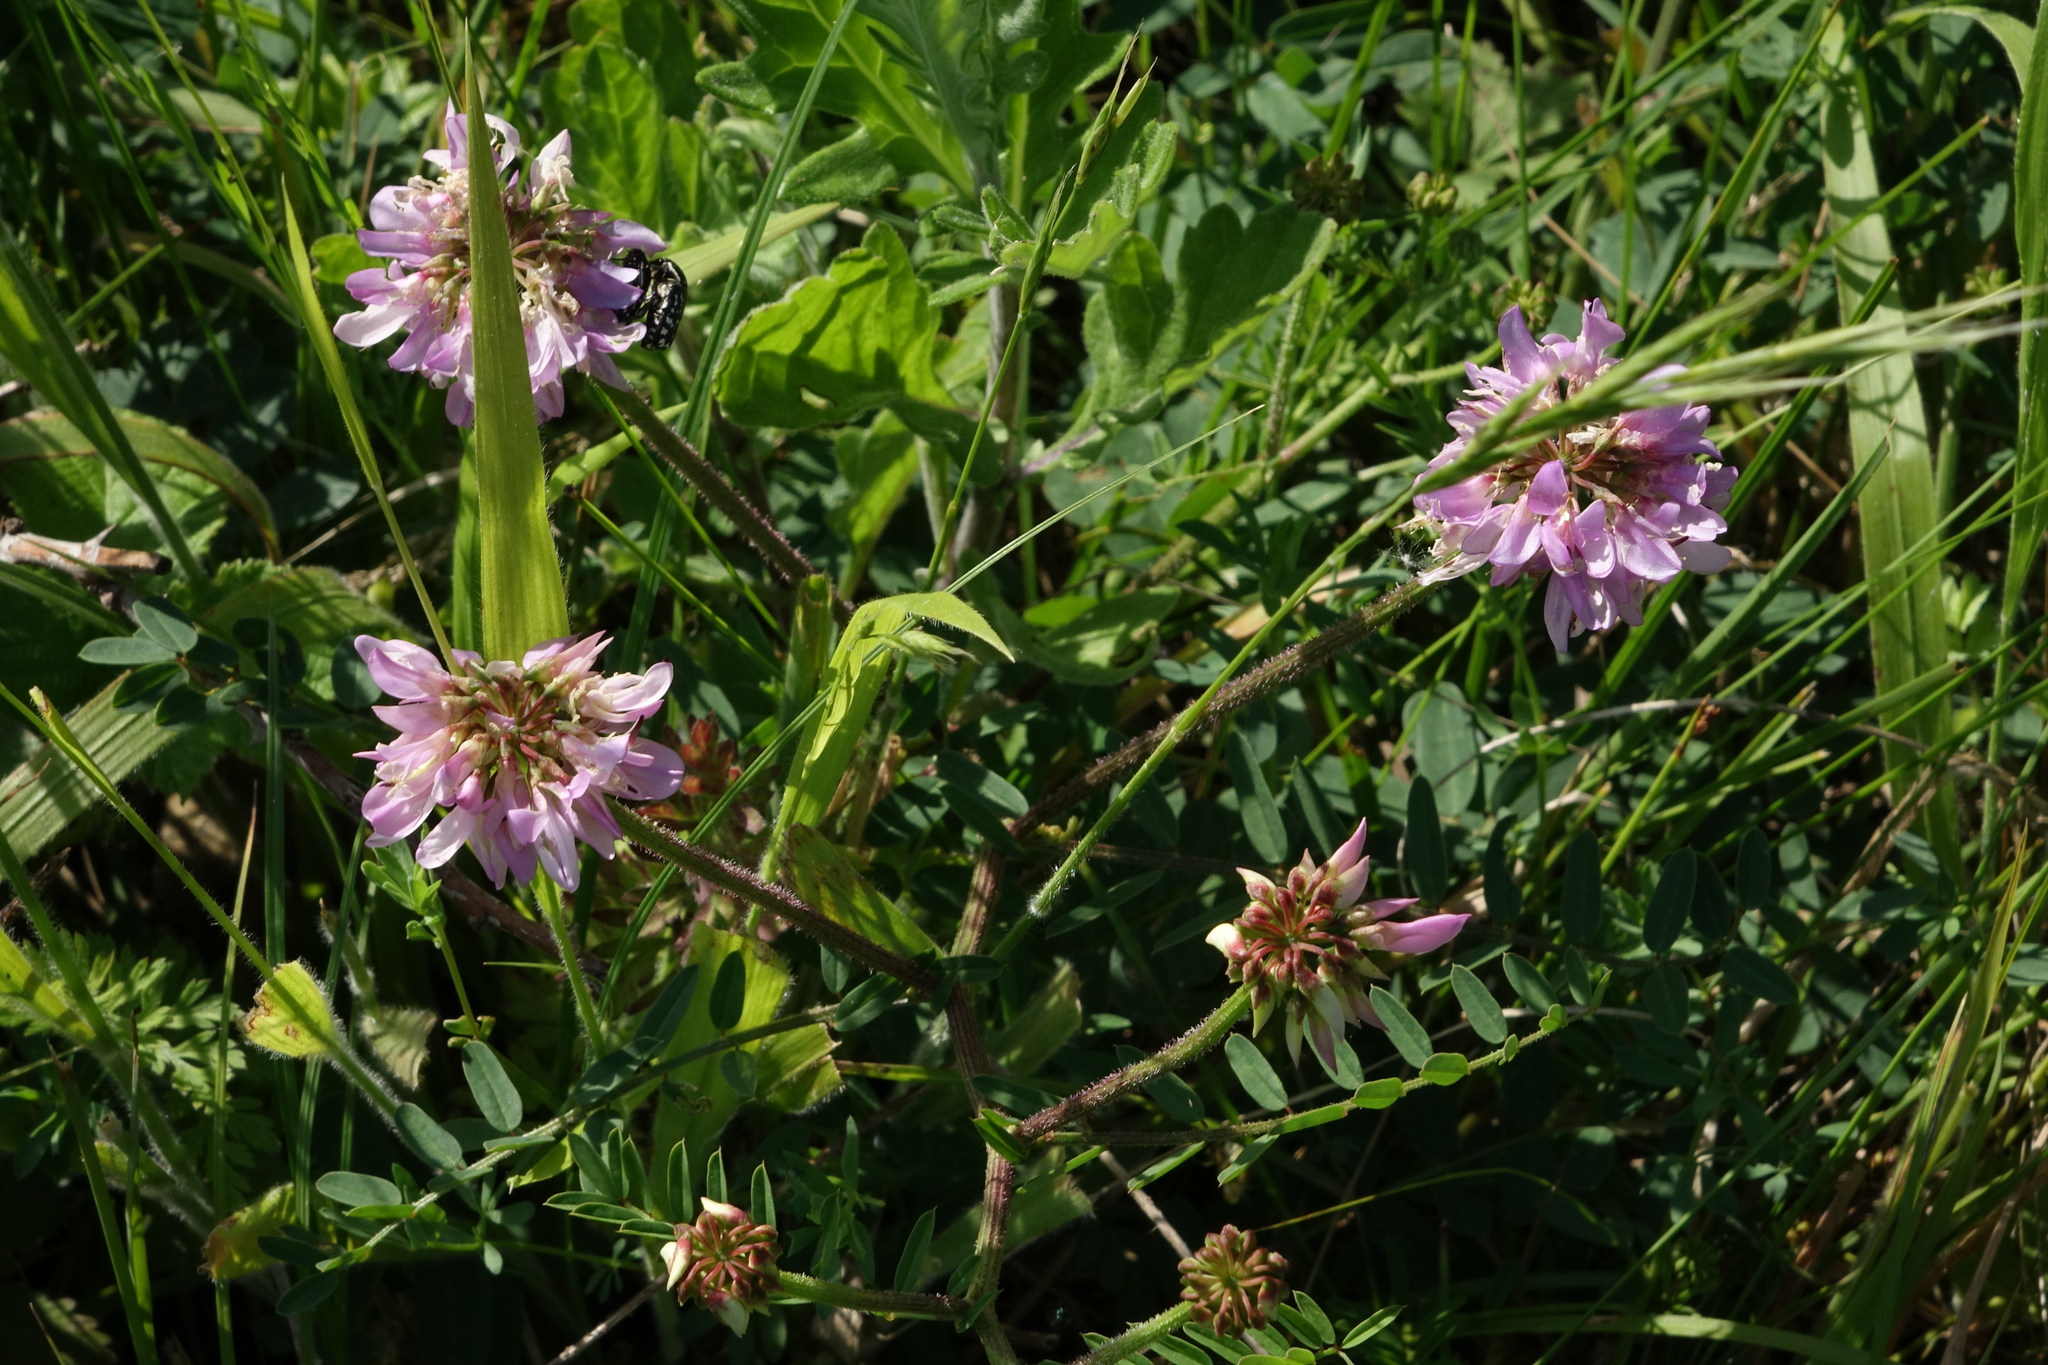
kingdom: Plantae
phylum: Tracheophyta
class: Magnoliopsida
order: Fabales
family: Fabaceae
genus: Coronilla
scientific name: Coronilla varia
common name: Crownvetch
